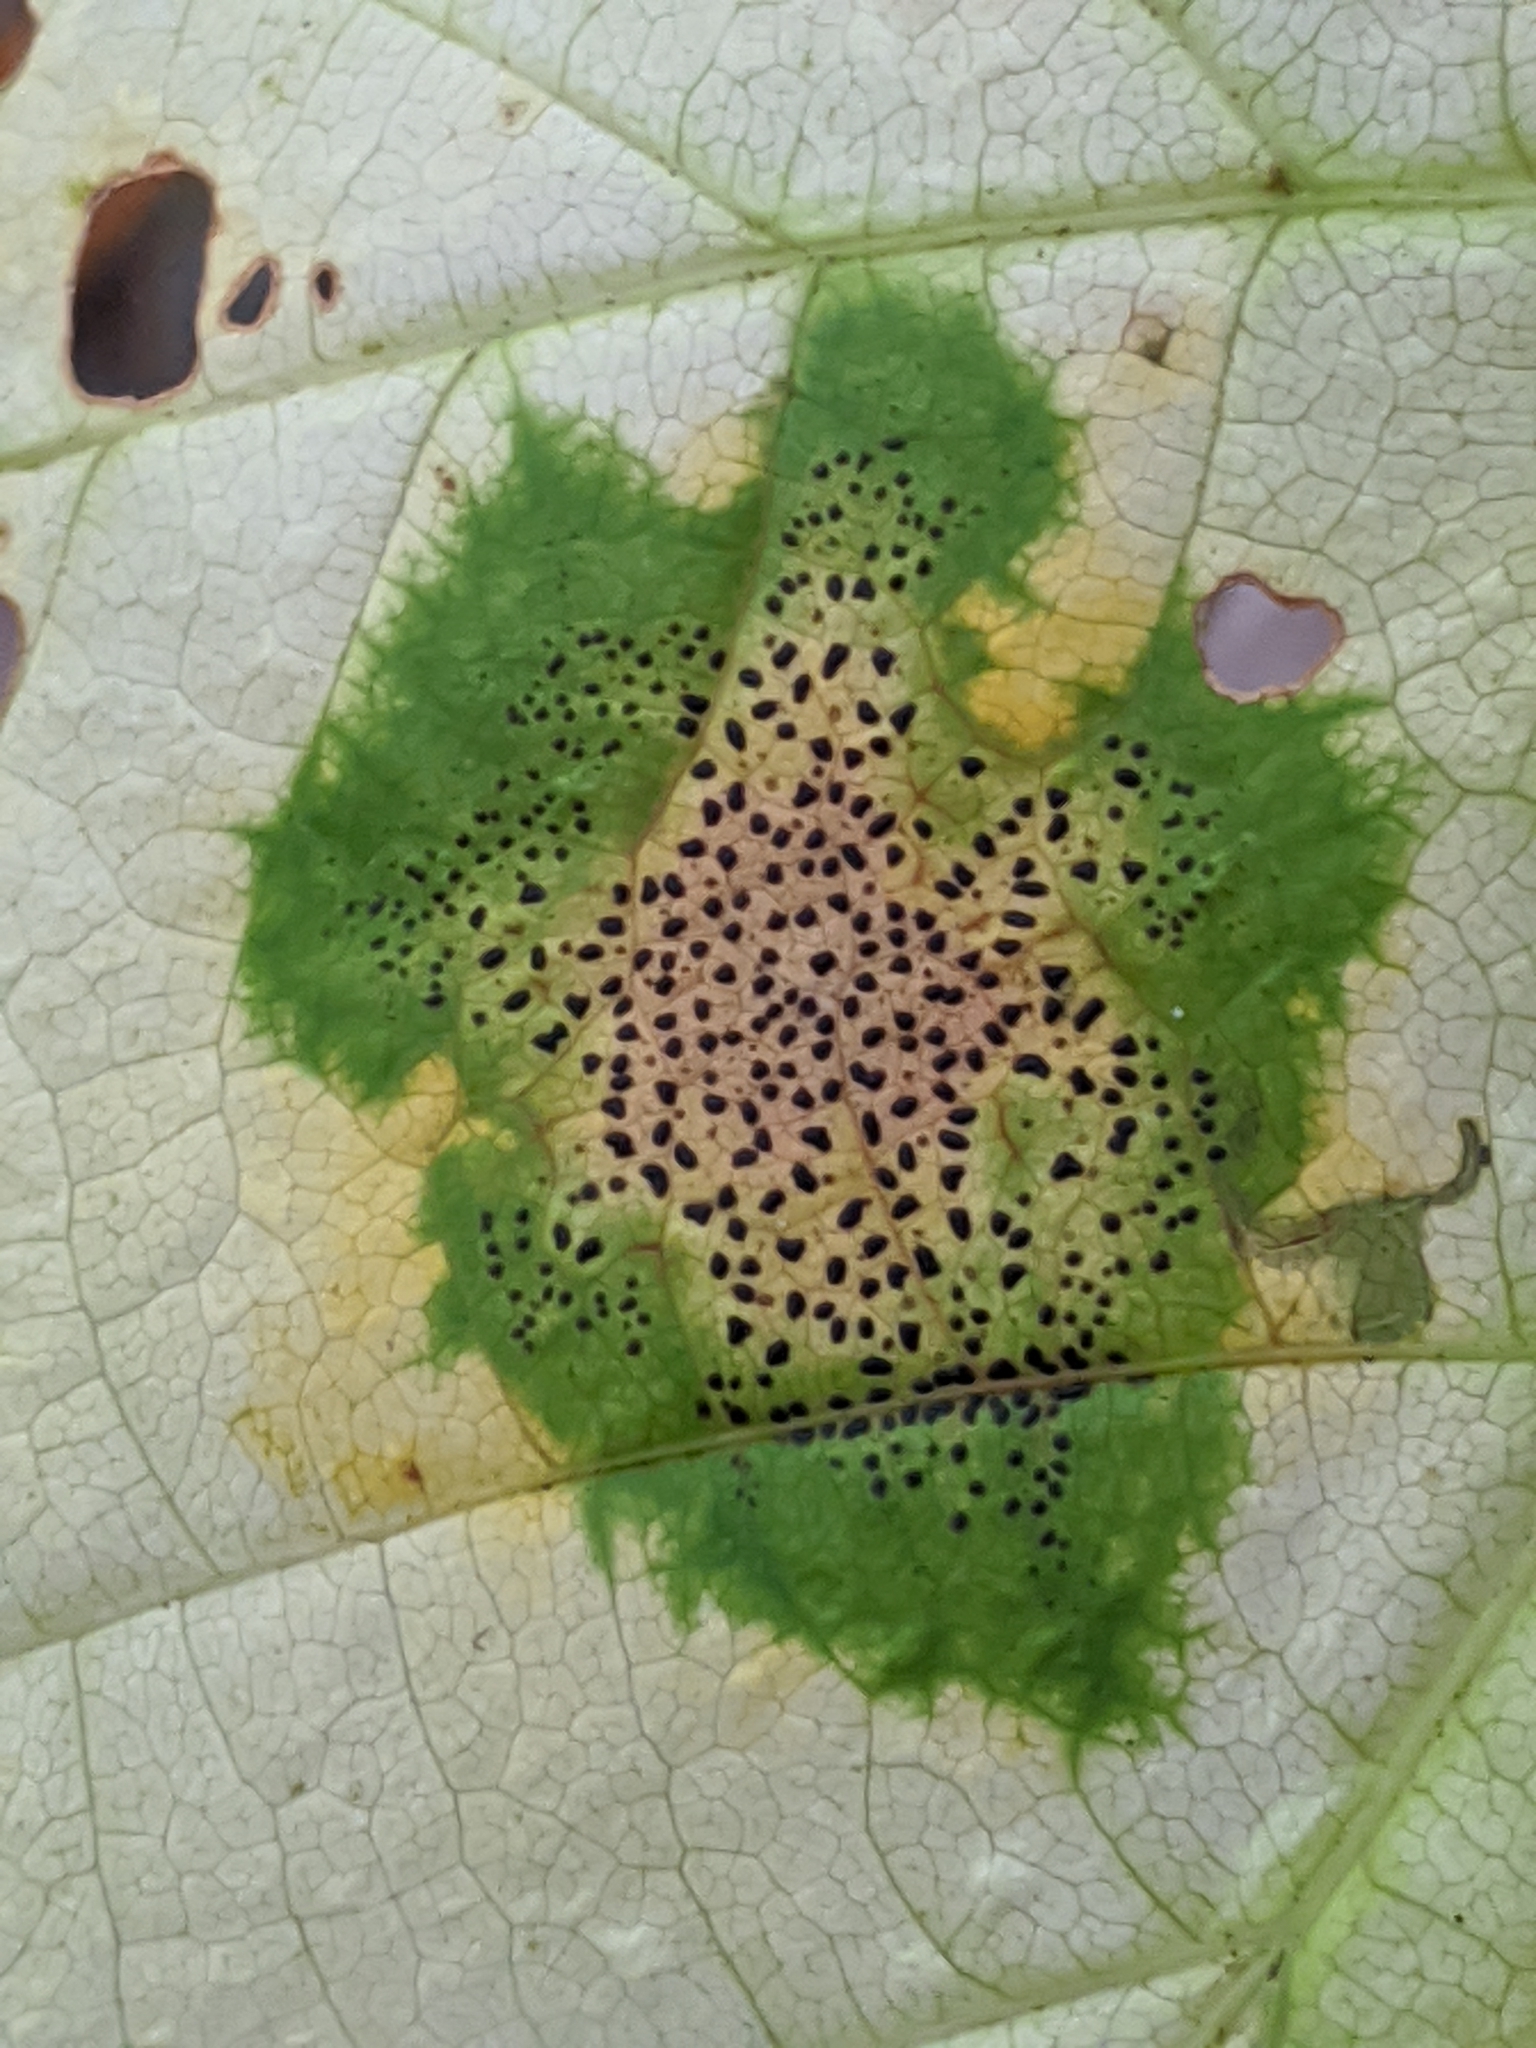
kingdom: Fungi
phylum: Ascomycota
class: Leotiomycetes
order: Rhytismatales
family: Rhytismataceae
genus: Rhytisma
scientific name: Rhytisma punctatum
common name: Speckled tar spot
